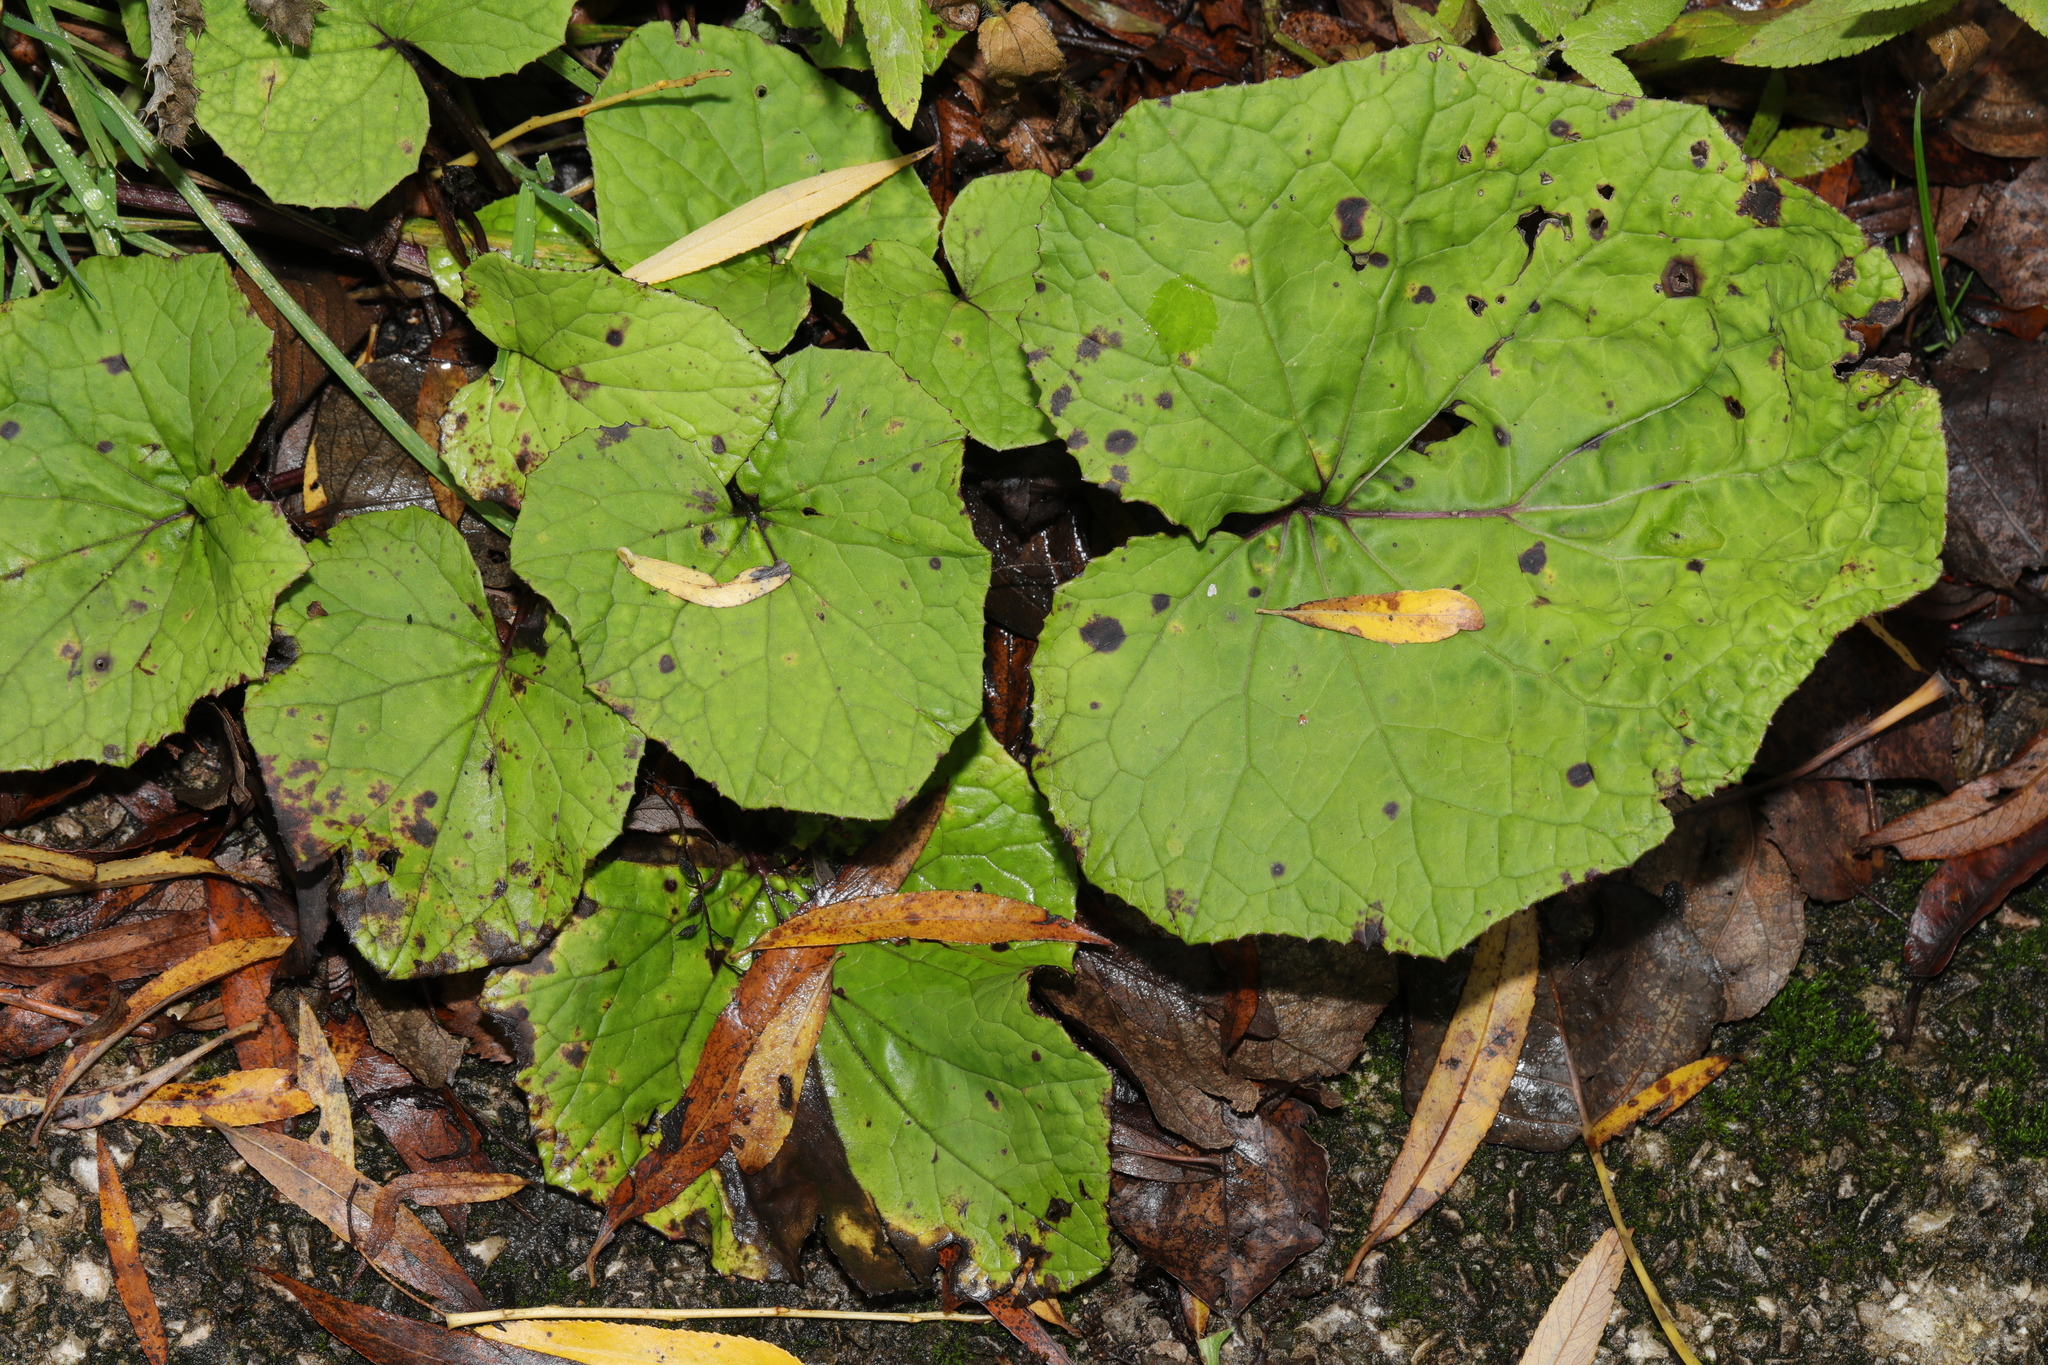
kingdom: Plantae
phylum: Tracheophyta
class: Magnoliopsida
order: Asterales
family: Asteraceae
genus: Tussilago
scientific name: Tussilago farfara
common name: Coltsfoot
